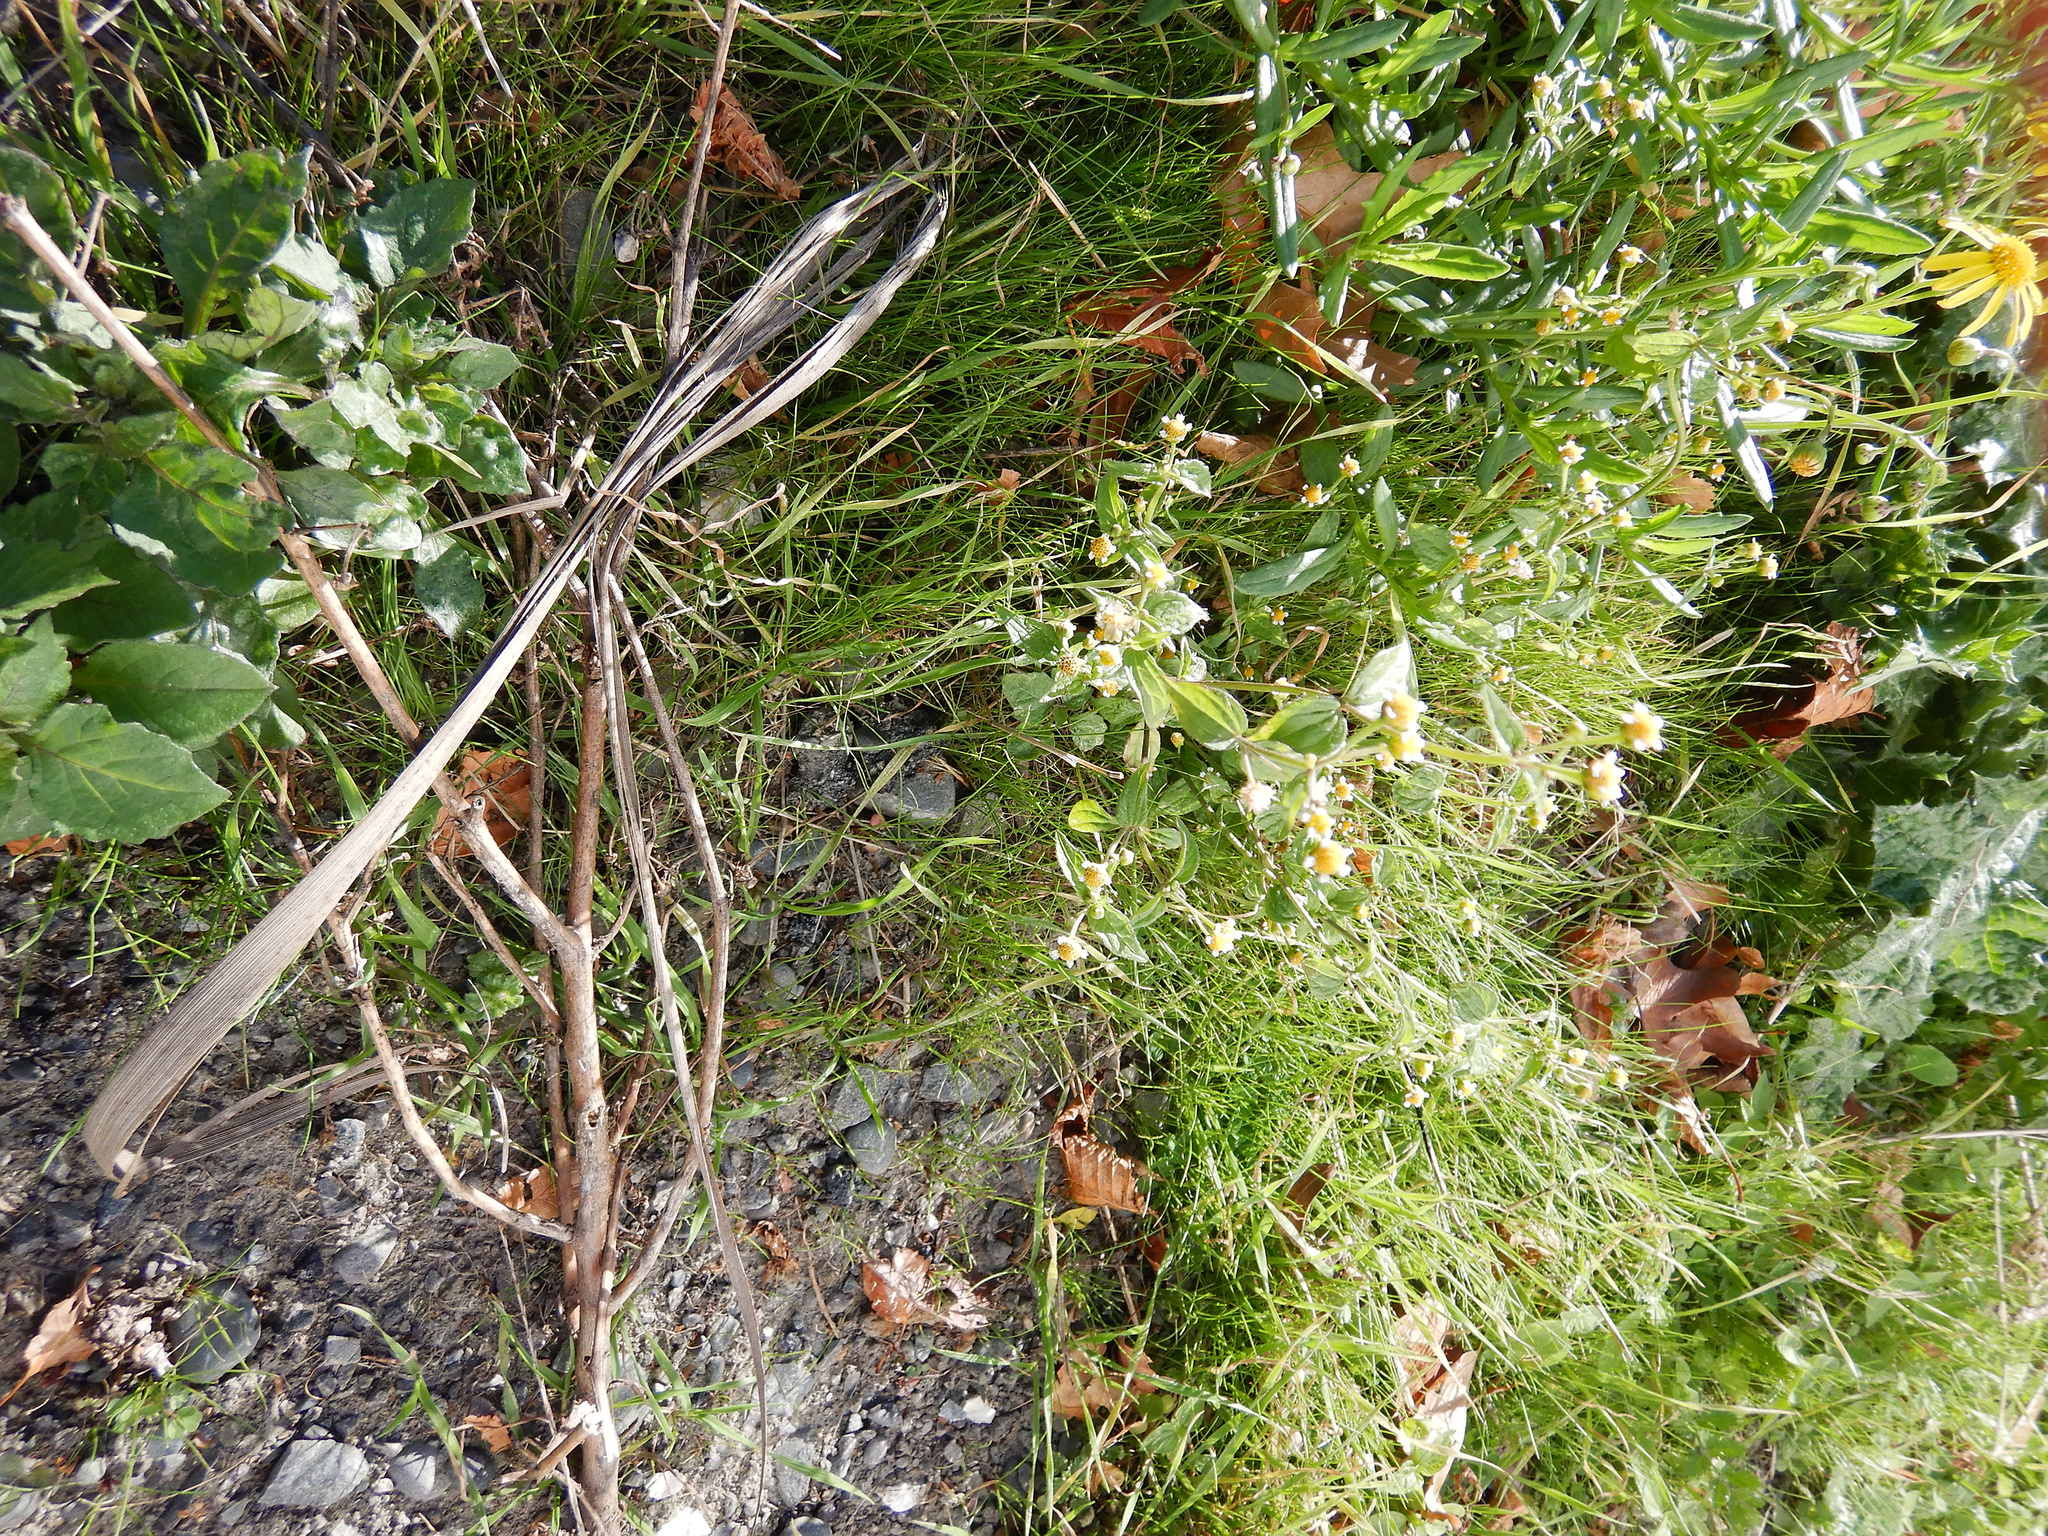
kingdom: Plantae
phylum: Tracheophyta
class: Magnoliopsida
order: Asterales
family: Asteraceae
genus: Senecio
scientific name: Senecio skirrhodon
